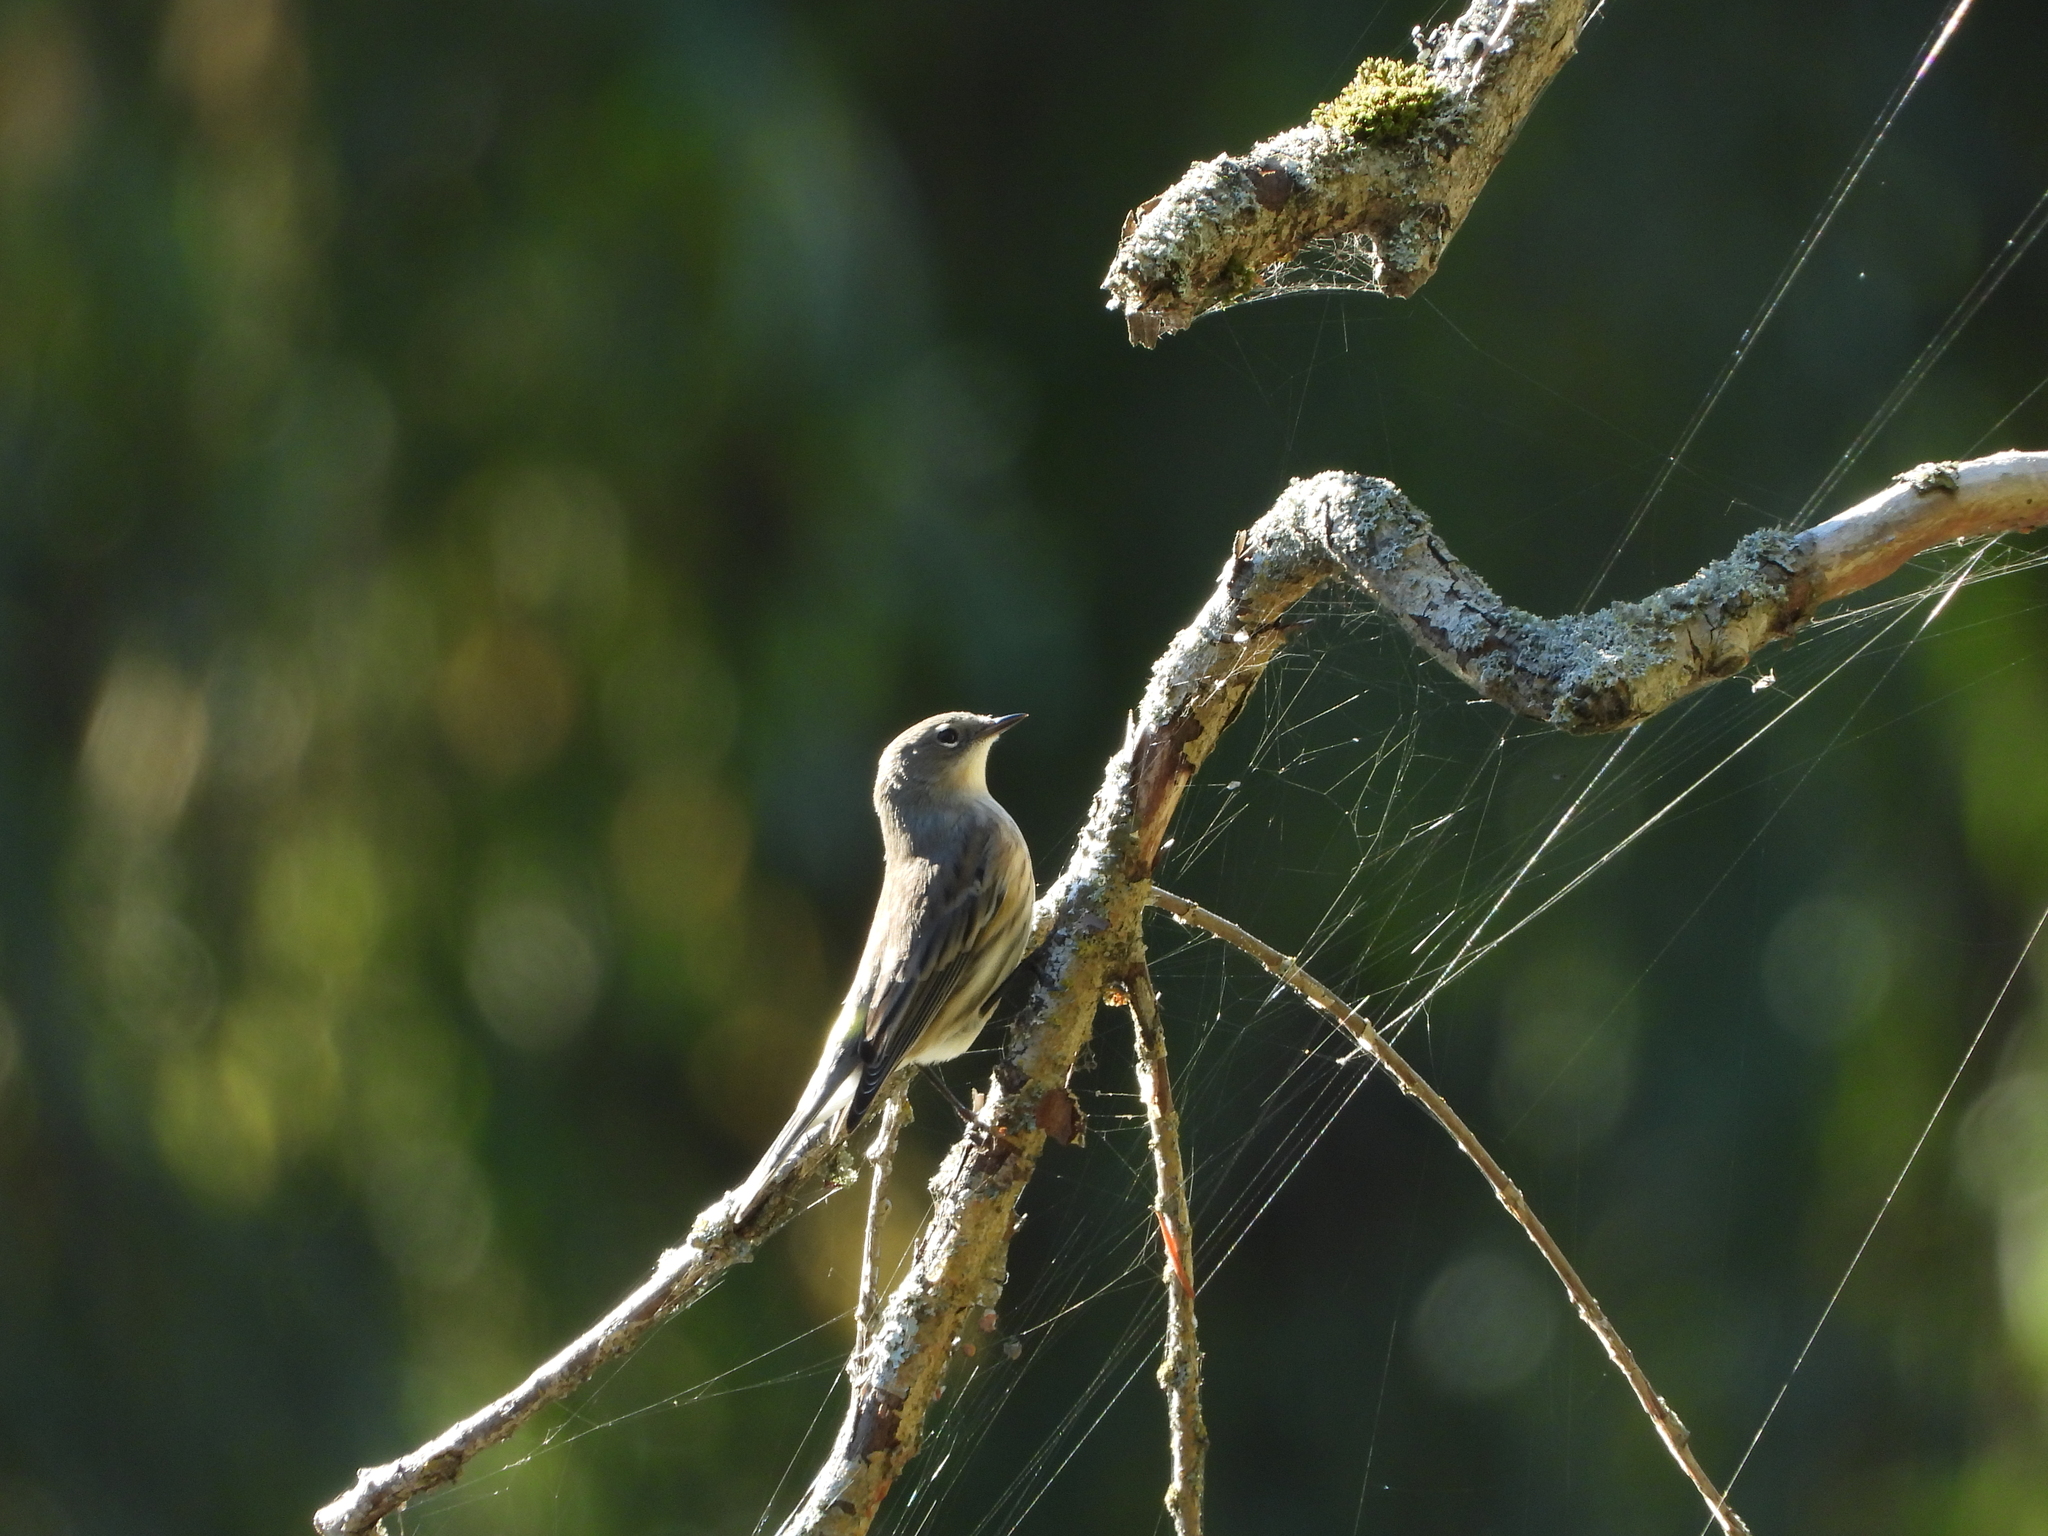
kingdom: Animalia
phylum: Chordata
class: Aves
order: Passeriformes
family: Parulidae
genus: Setophaga
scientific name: Setophaga coronata
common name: Myrtle warbler
